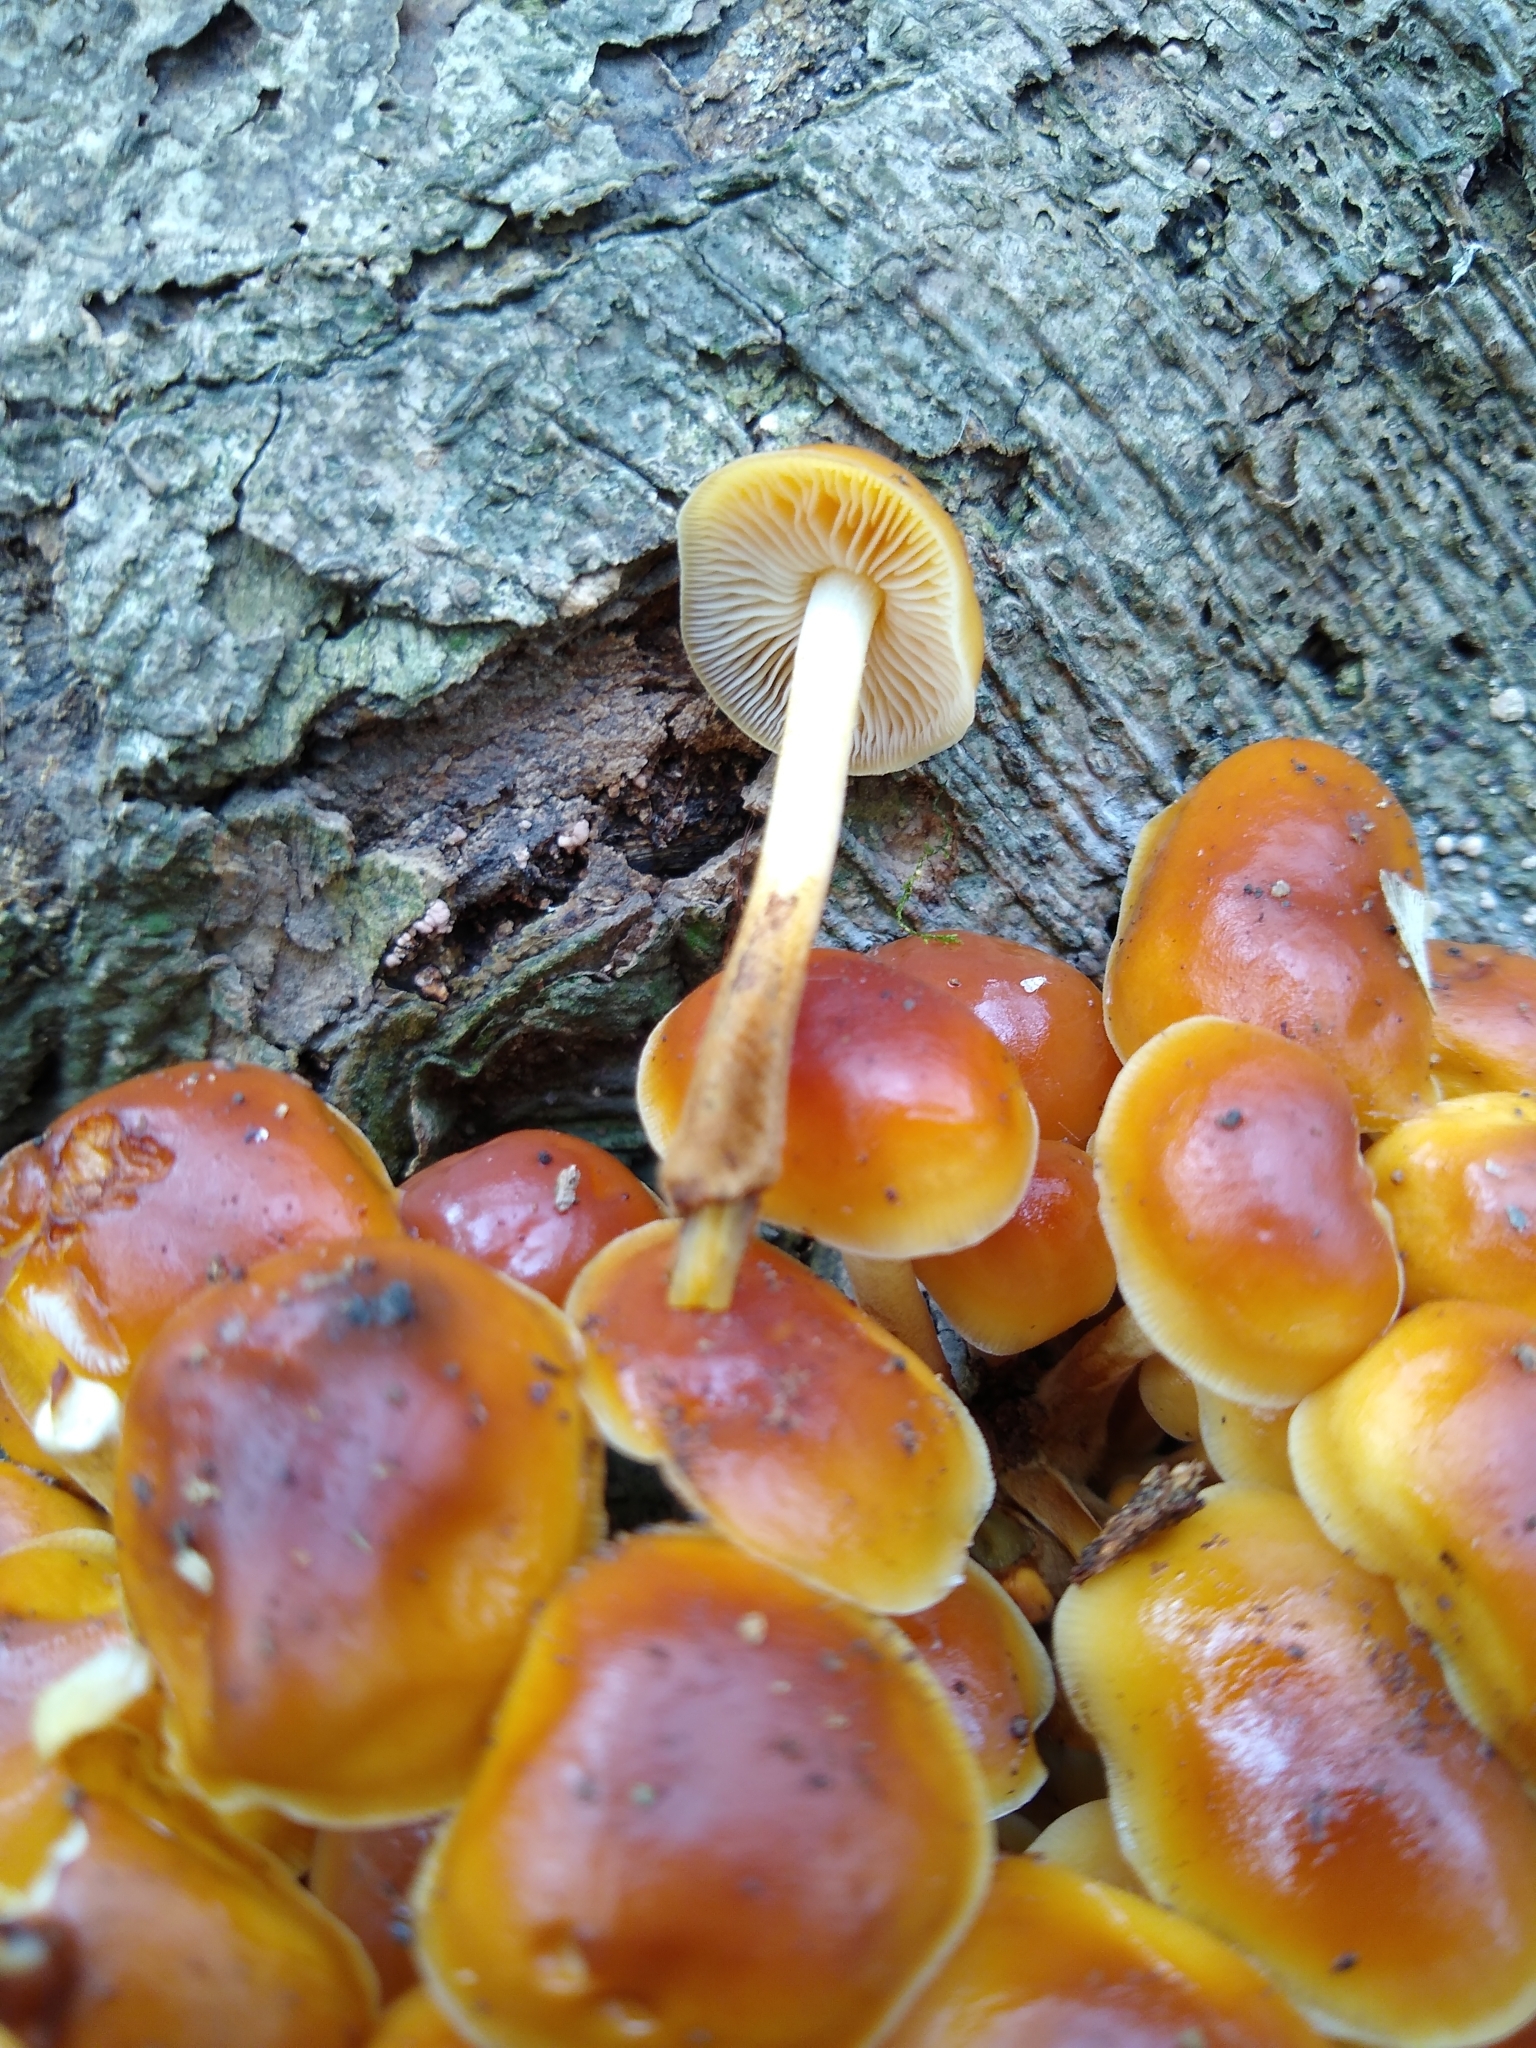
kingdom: Fungi
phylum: Basidiomycota
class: Agaricomycetes
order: Agaricales
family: Physalacriaceae
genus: Flammulina
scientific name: Flammulina velutipes
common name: Velvet shank
